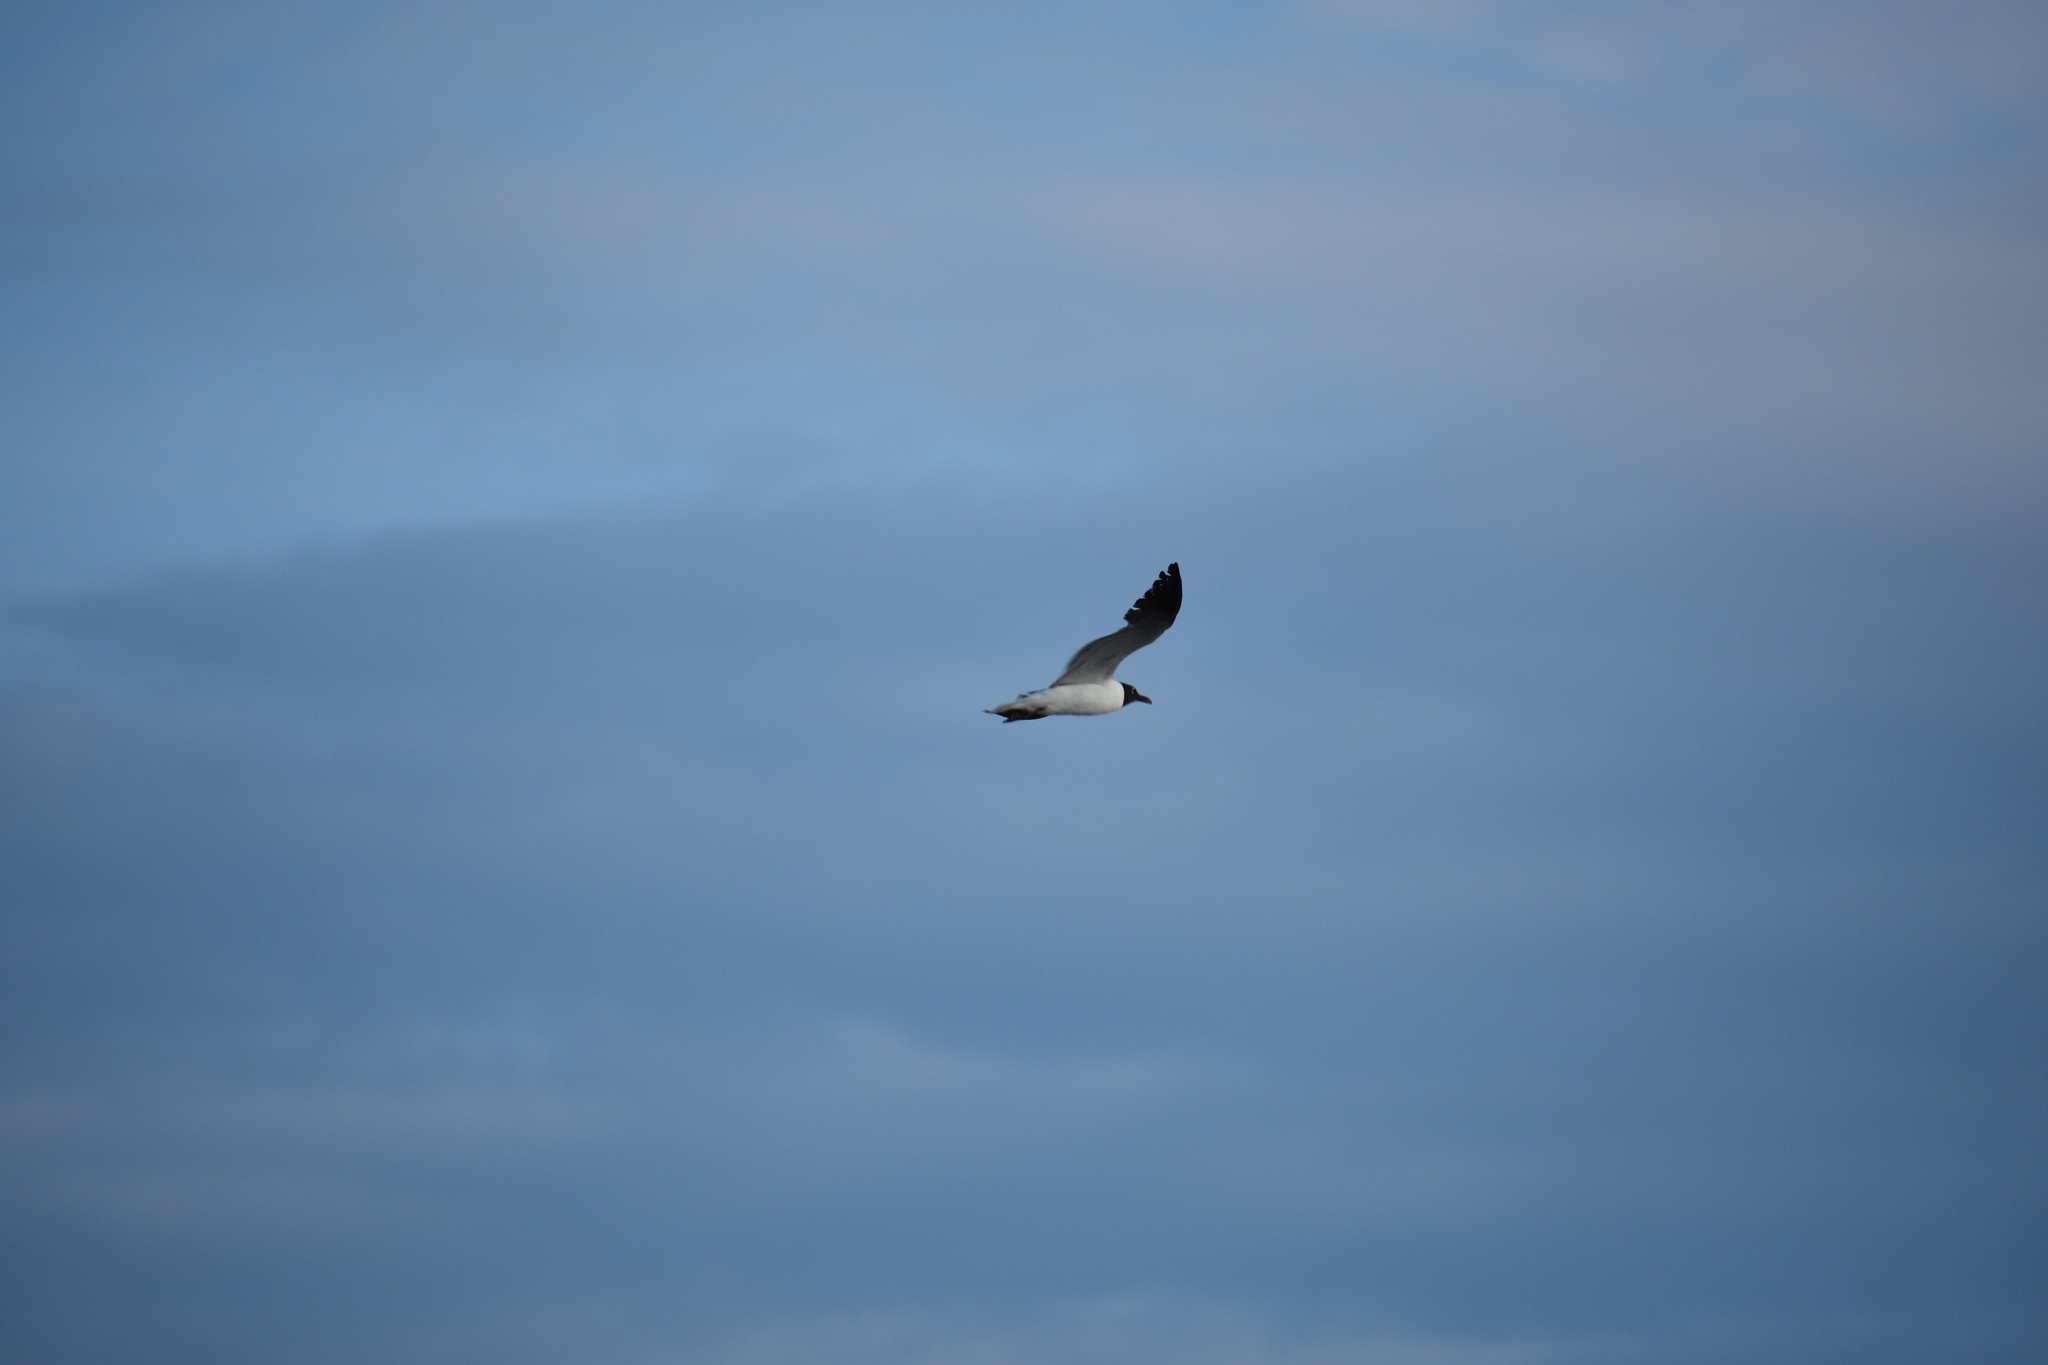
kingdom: Animalia
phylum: Chordata
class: Aves
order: Charadriiformes
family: Laridae
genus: Leucophaeus
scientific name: Leucophaeus atricilla
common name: Laughing gull
